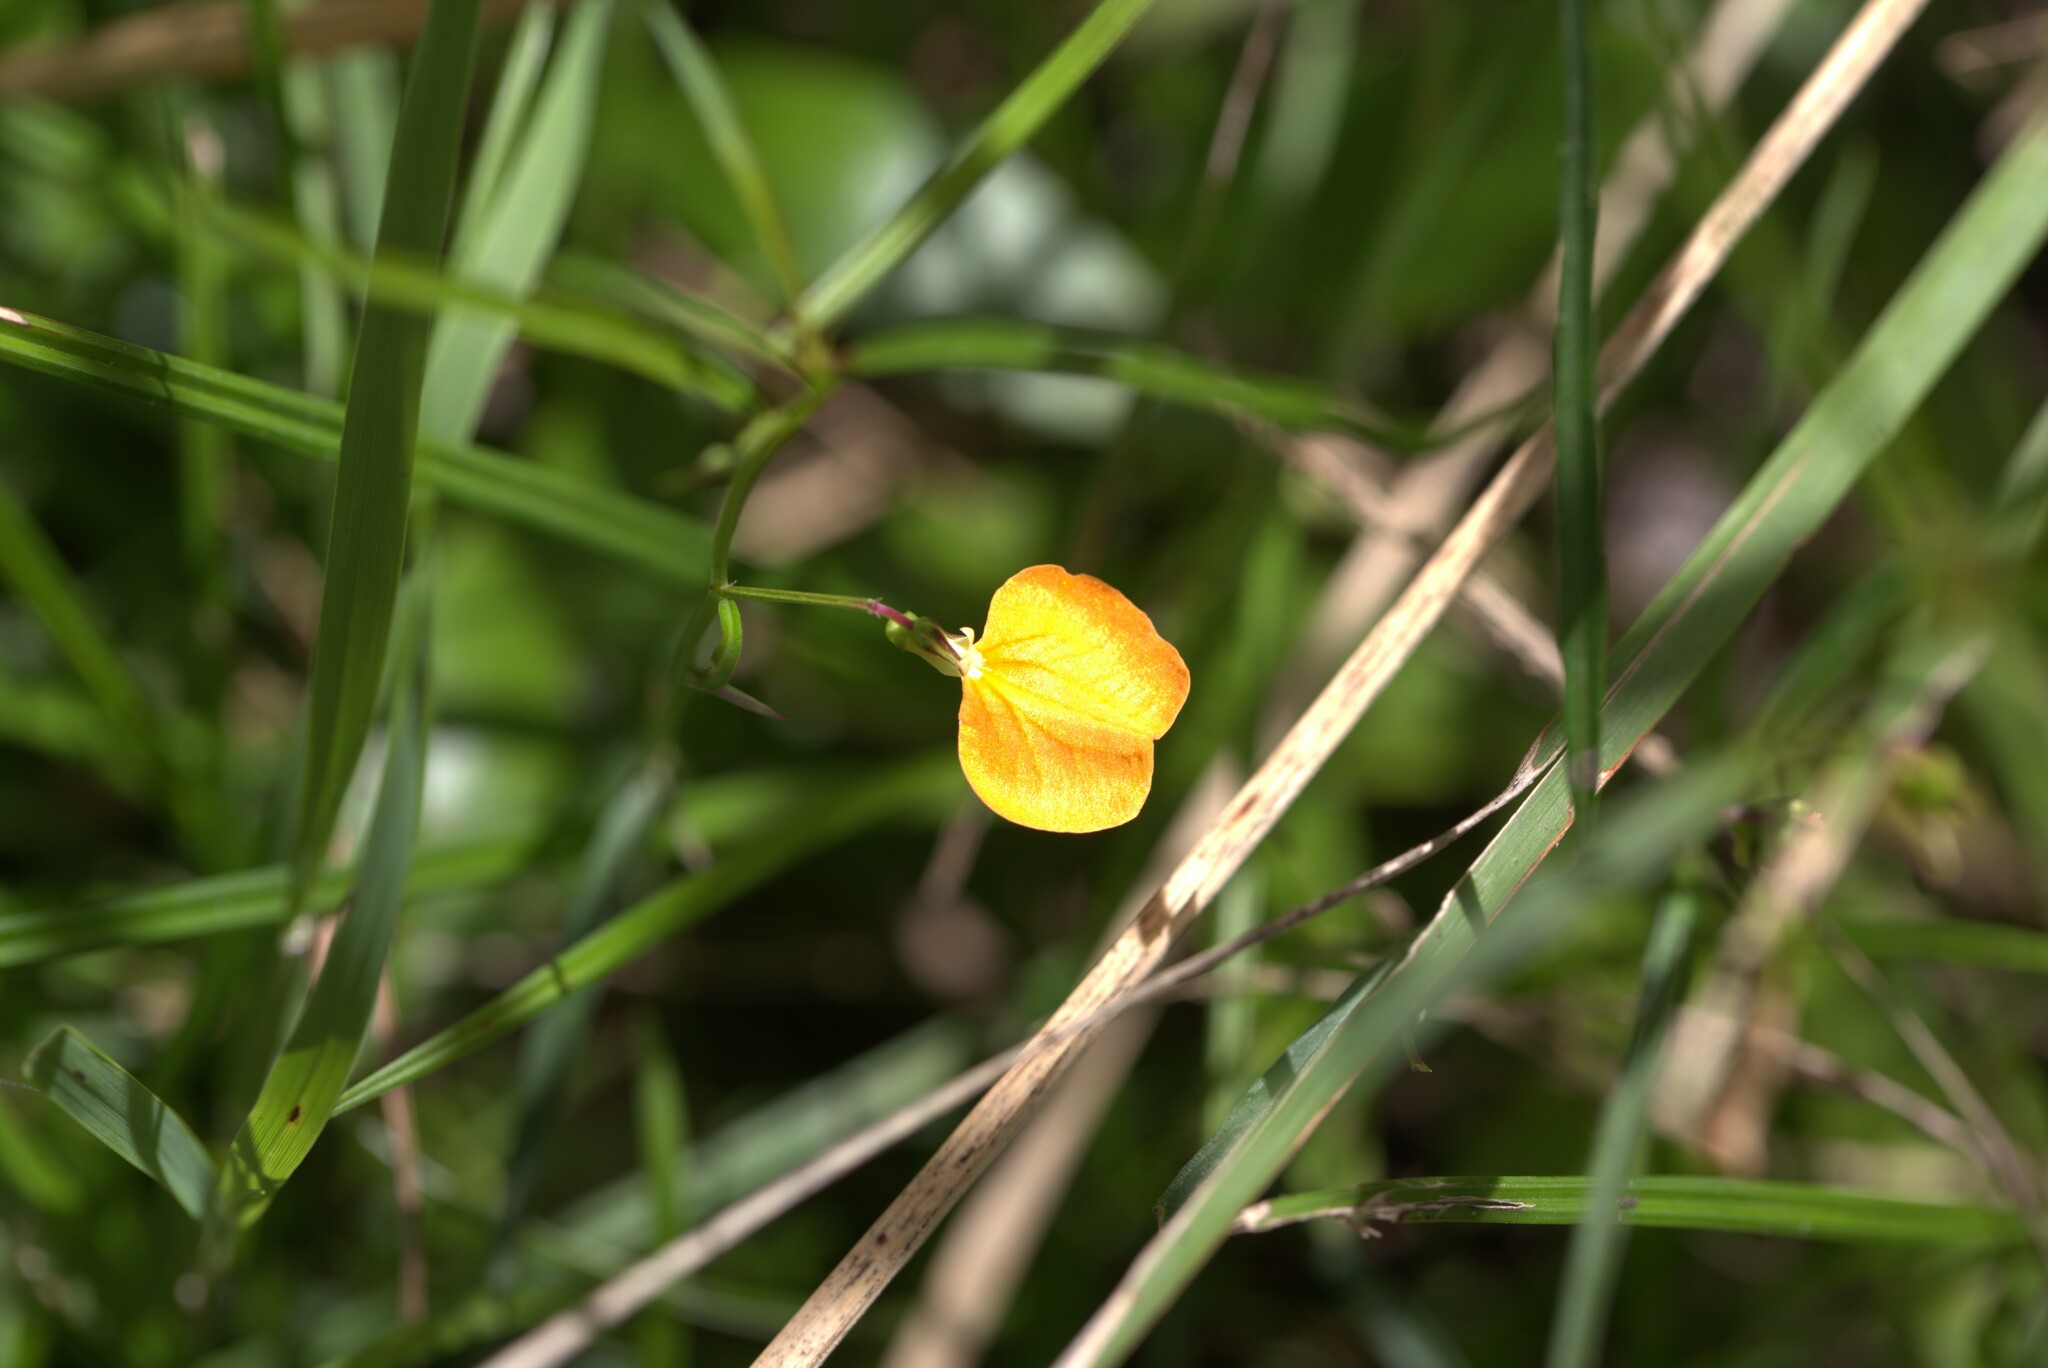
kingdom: Plantae
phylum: Tracheophyta
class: Magnoliopsida
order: Malpighiales
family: Violaceae
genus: Pigea
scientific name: Pigea stellarioides
